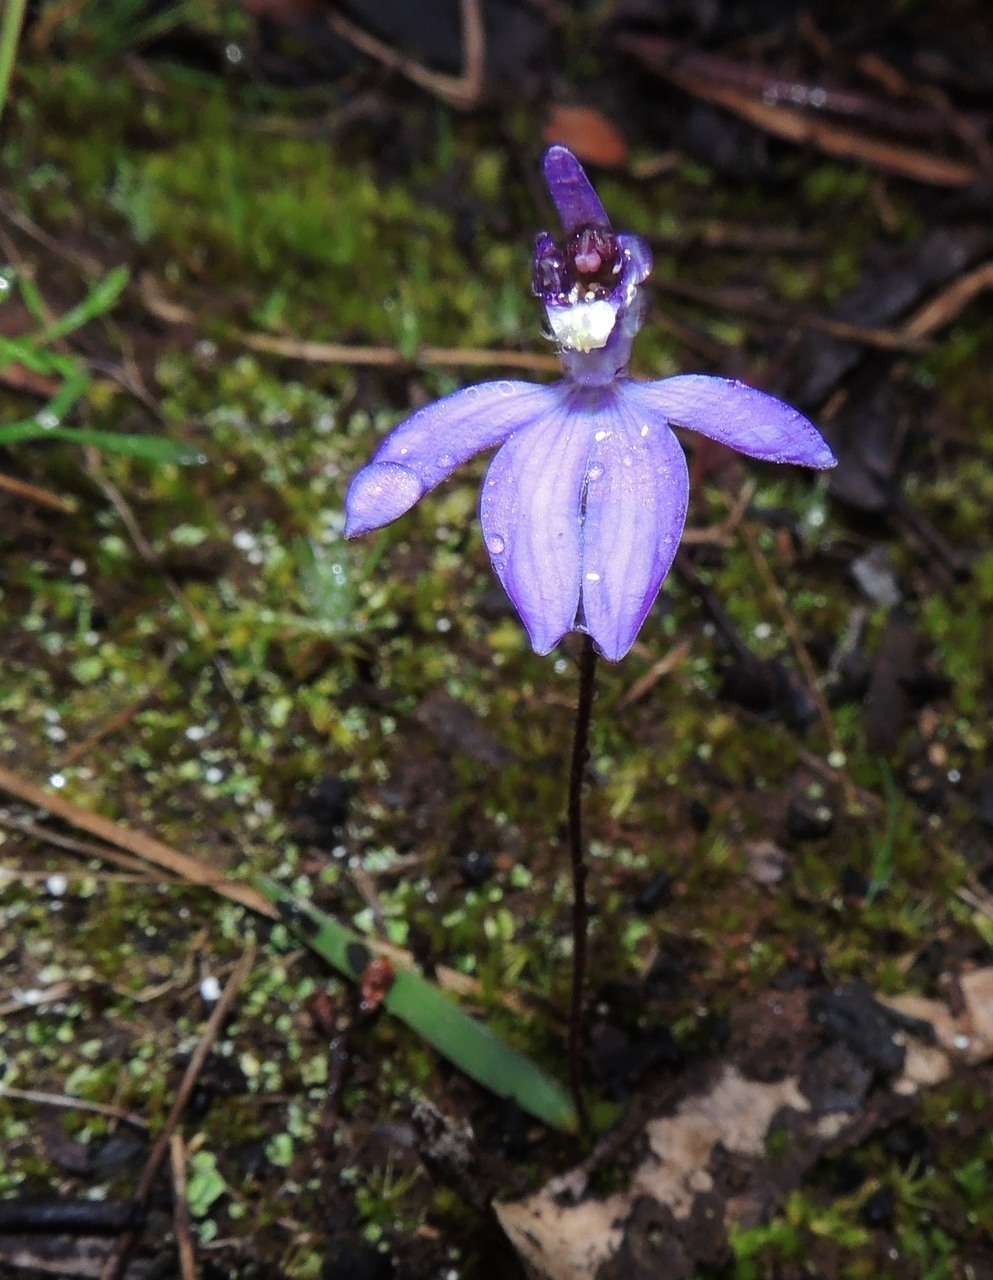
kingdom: Plantae
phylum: Tracheophyta
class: Liliopsida
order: Asparagales
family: Orchidaceae
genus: Caladenia
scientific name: Caladenia caerulea
